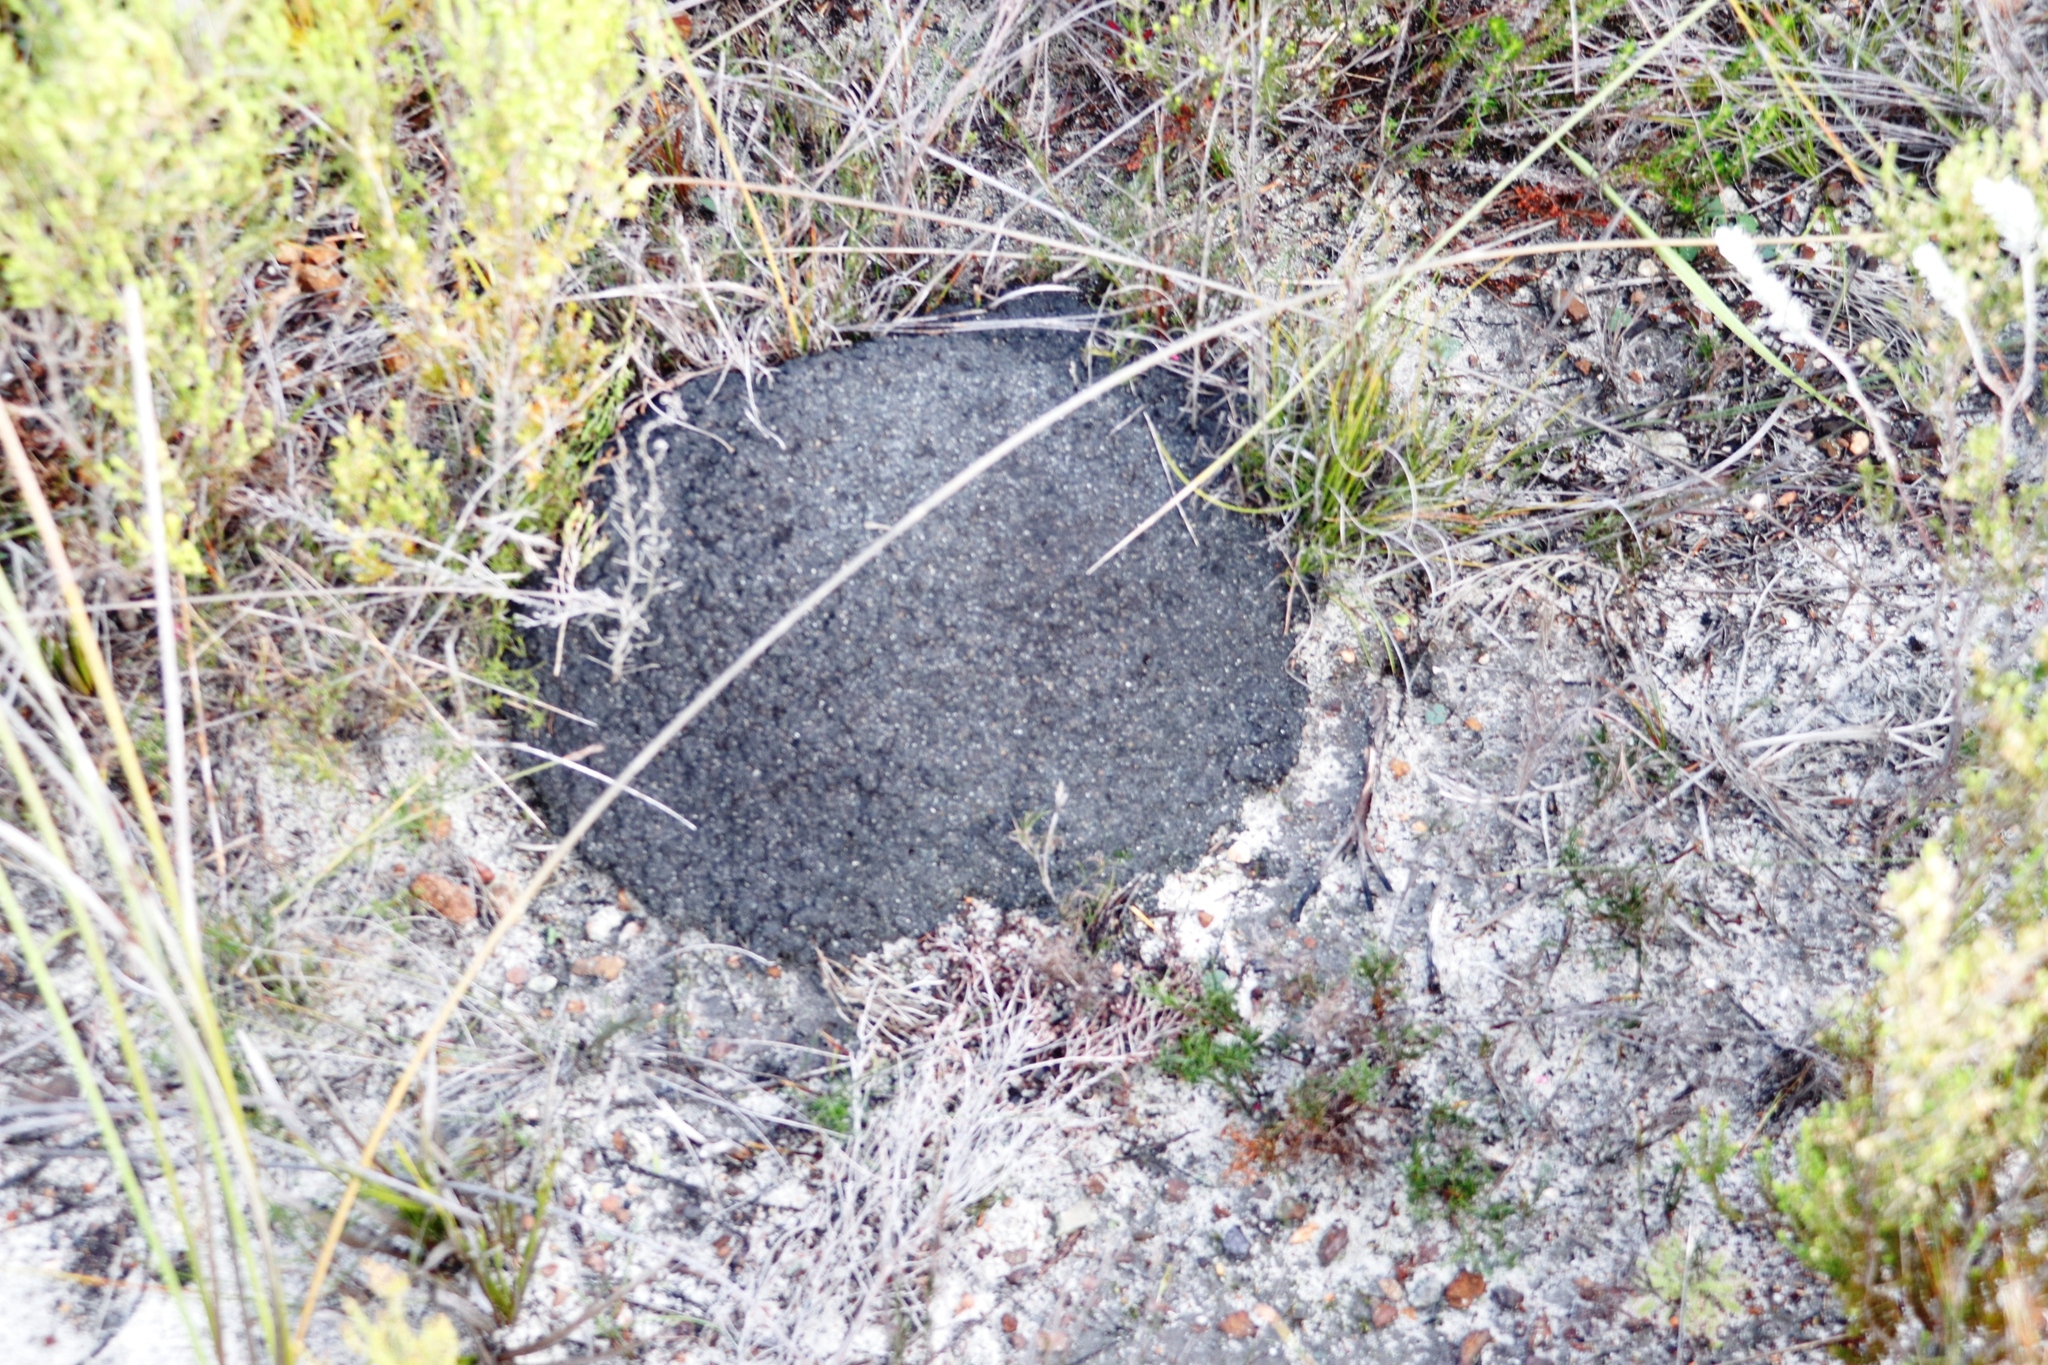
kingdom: Animalia
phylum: Arthropoda
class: Insecta
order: Blattodea
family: Termitidae
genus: Amitermes
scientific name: Amitermes hastatus
